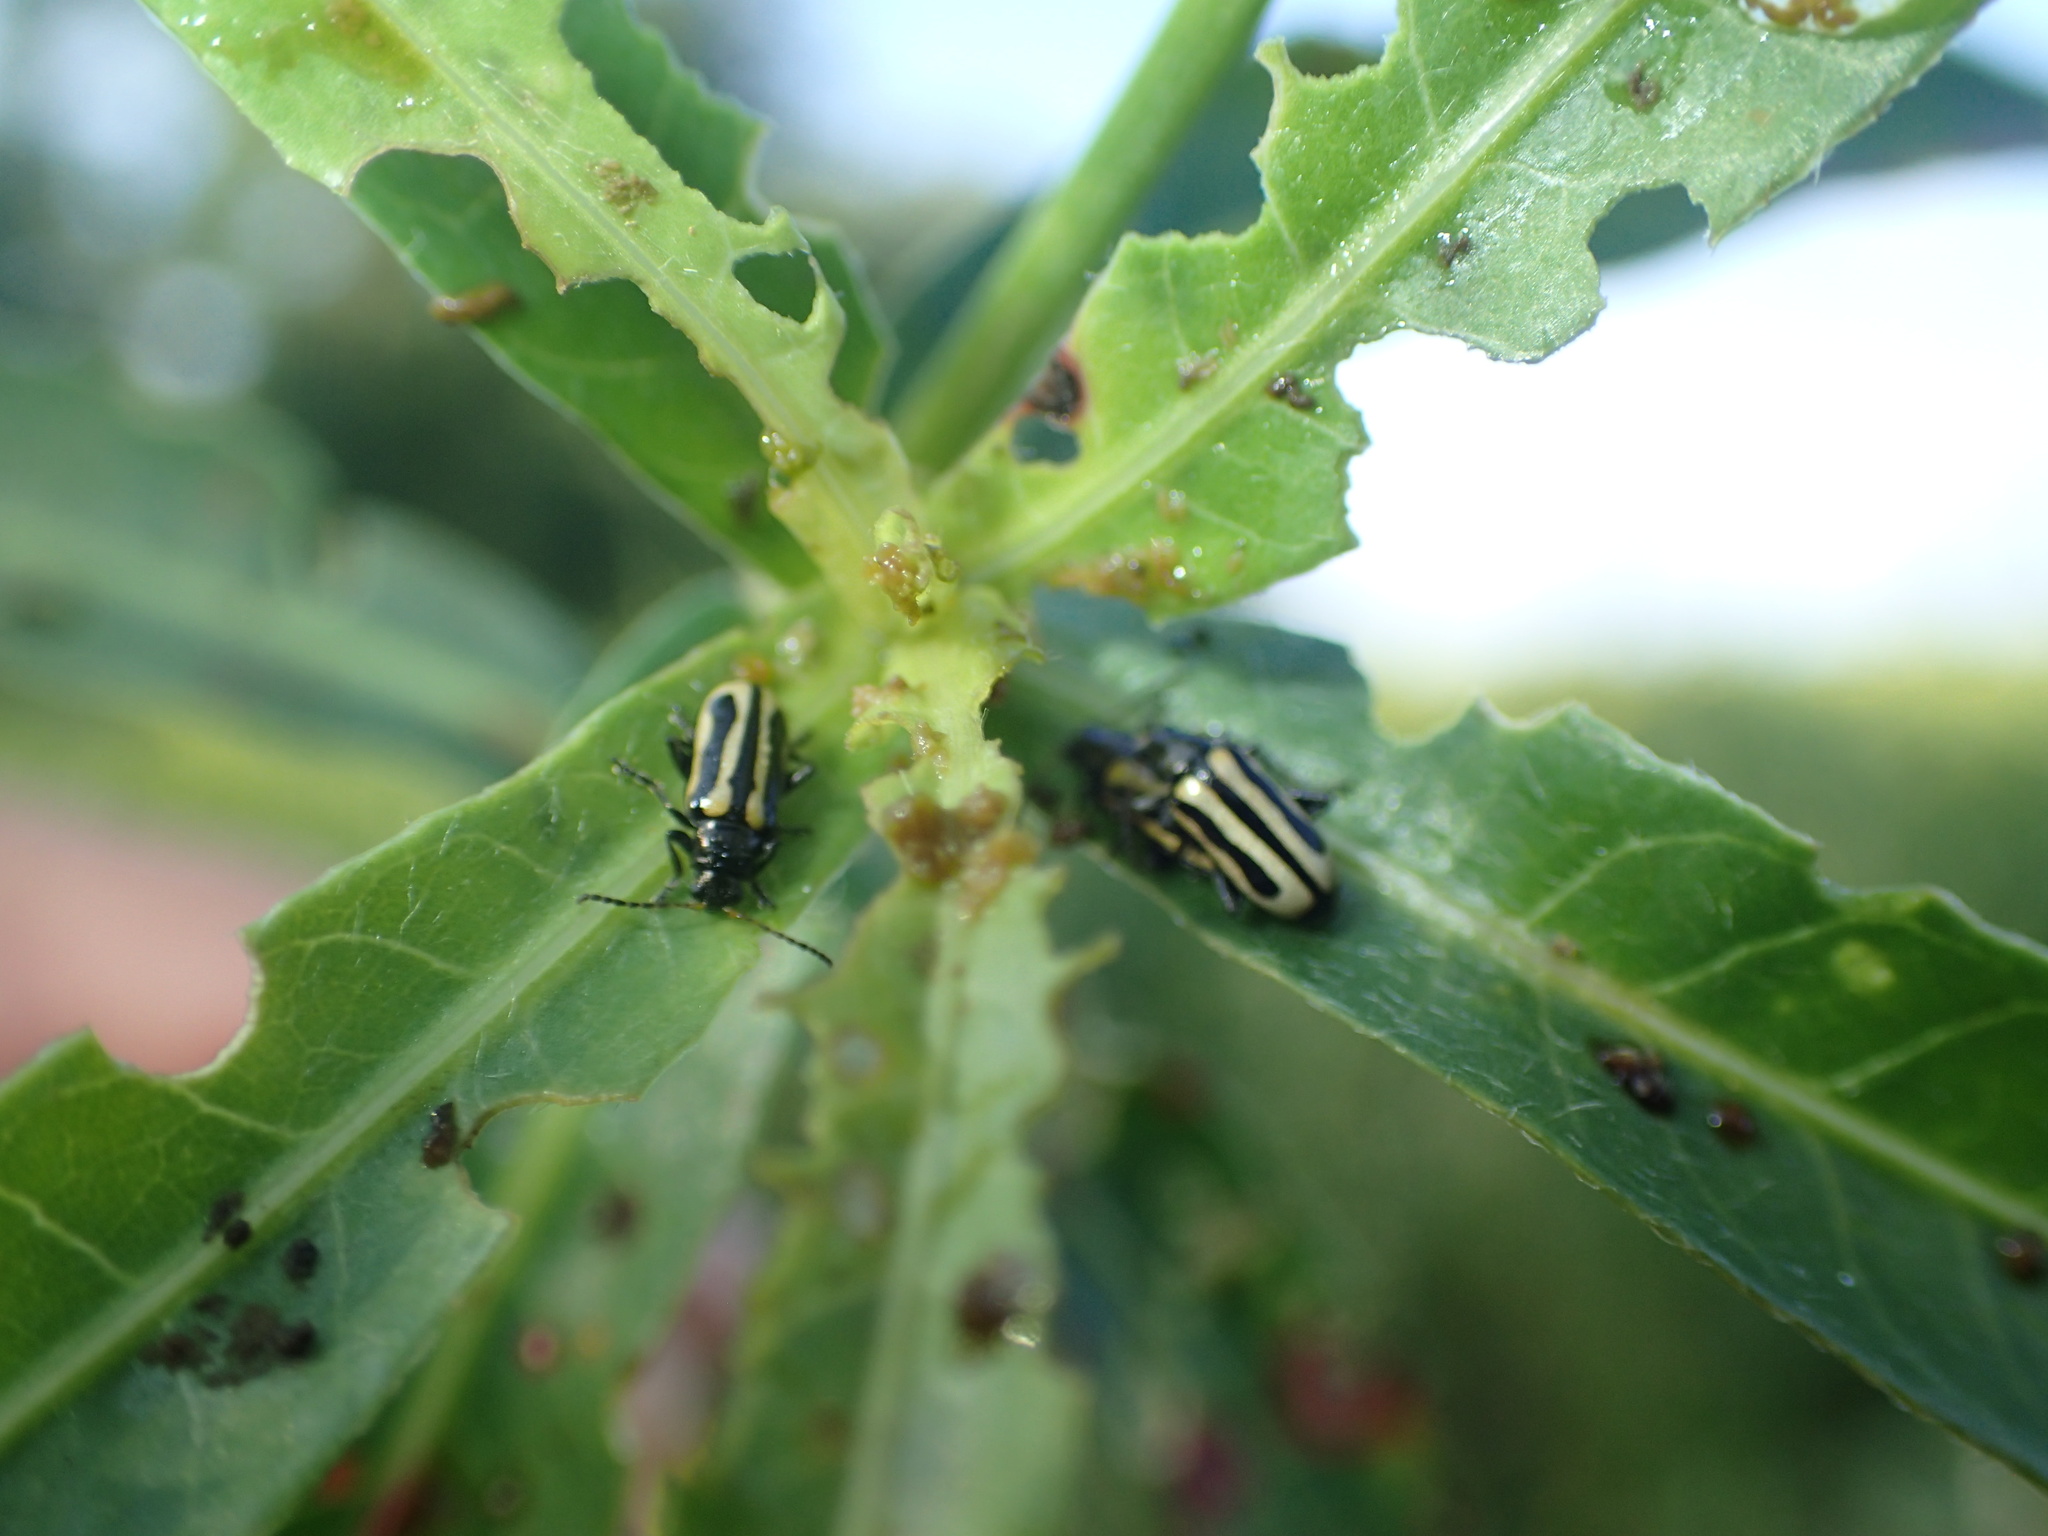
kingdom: Animalia
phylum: Arthropoda
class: Insecta
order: Coleoptera
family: Chrysomelidae
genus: Agasicles
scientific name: Agasicles hygrophila
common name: Alligatorweed flea beetle
